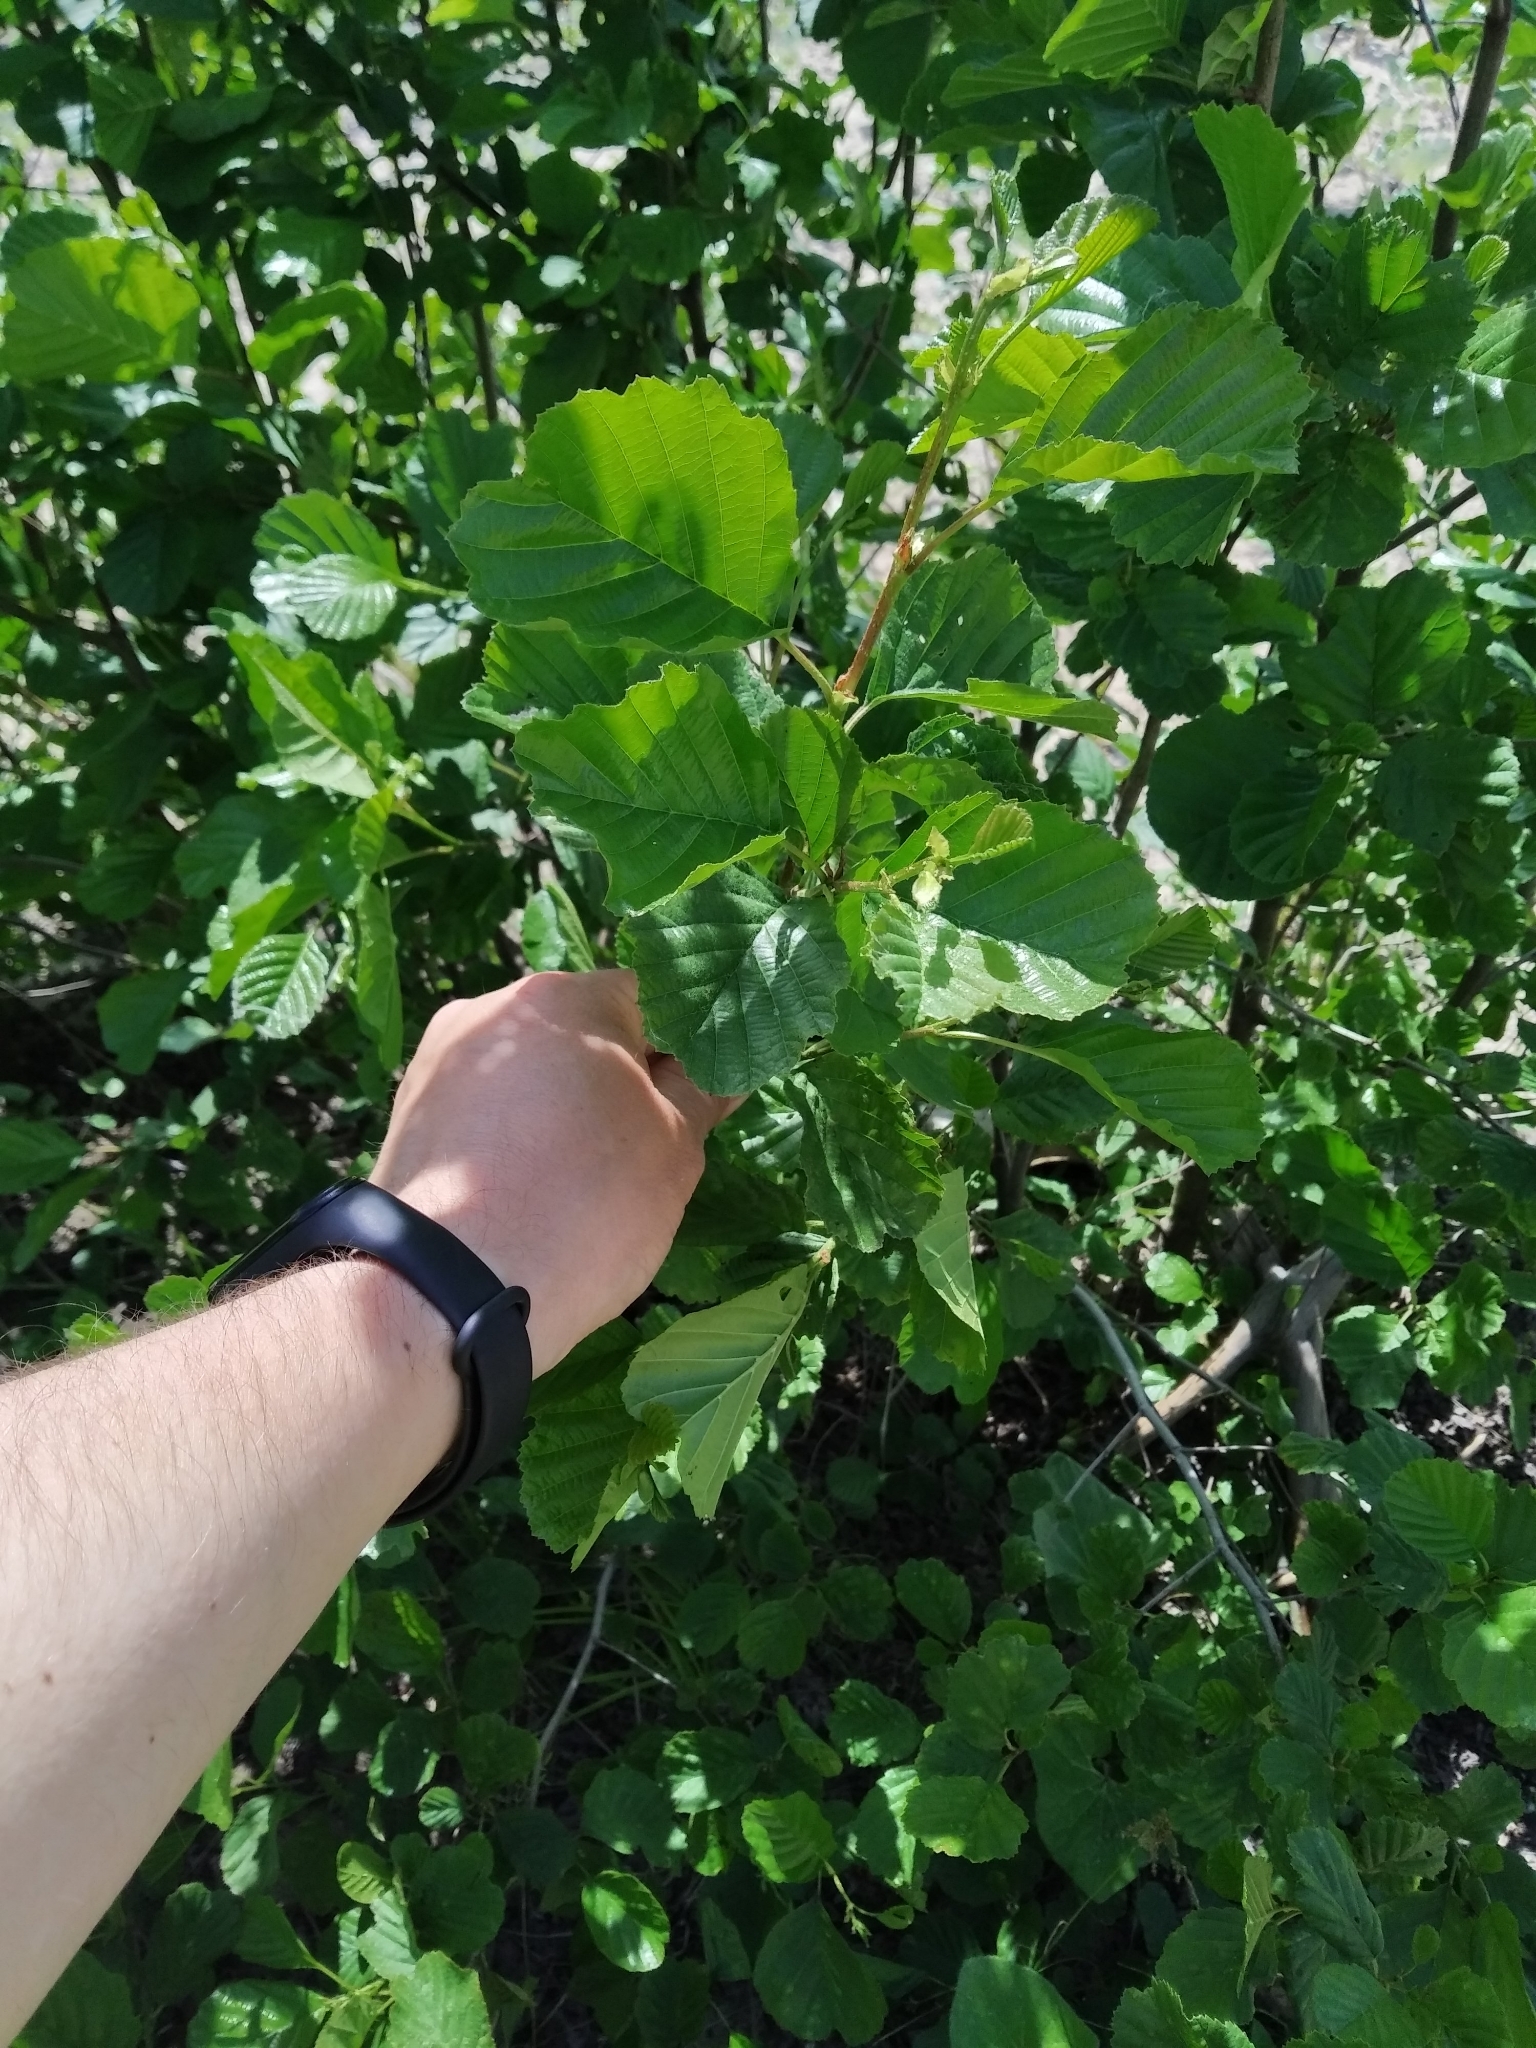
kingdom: Plantae
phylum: Tracheophyta
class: Magnoliopsida
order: Fagales
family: Betulaceae
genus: Alnus
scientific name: Alnus glutinosa
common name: Black alder
